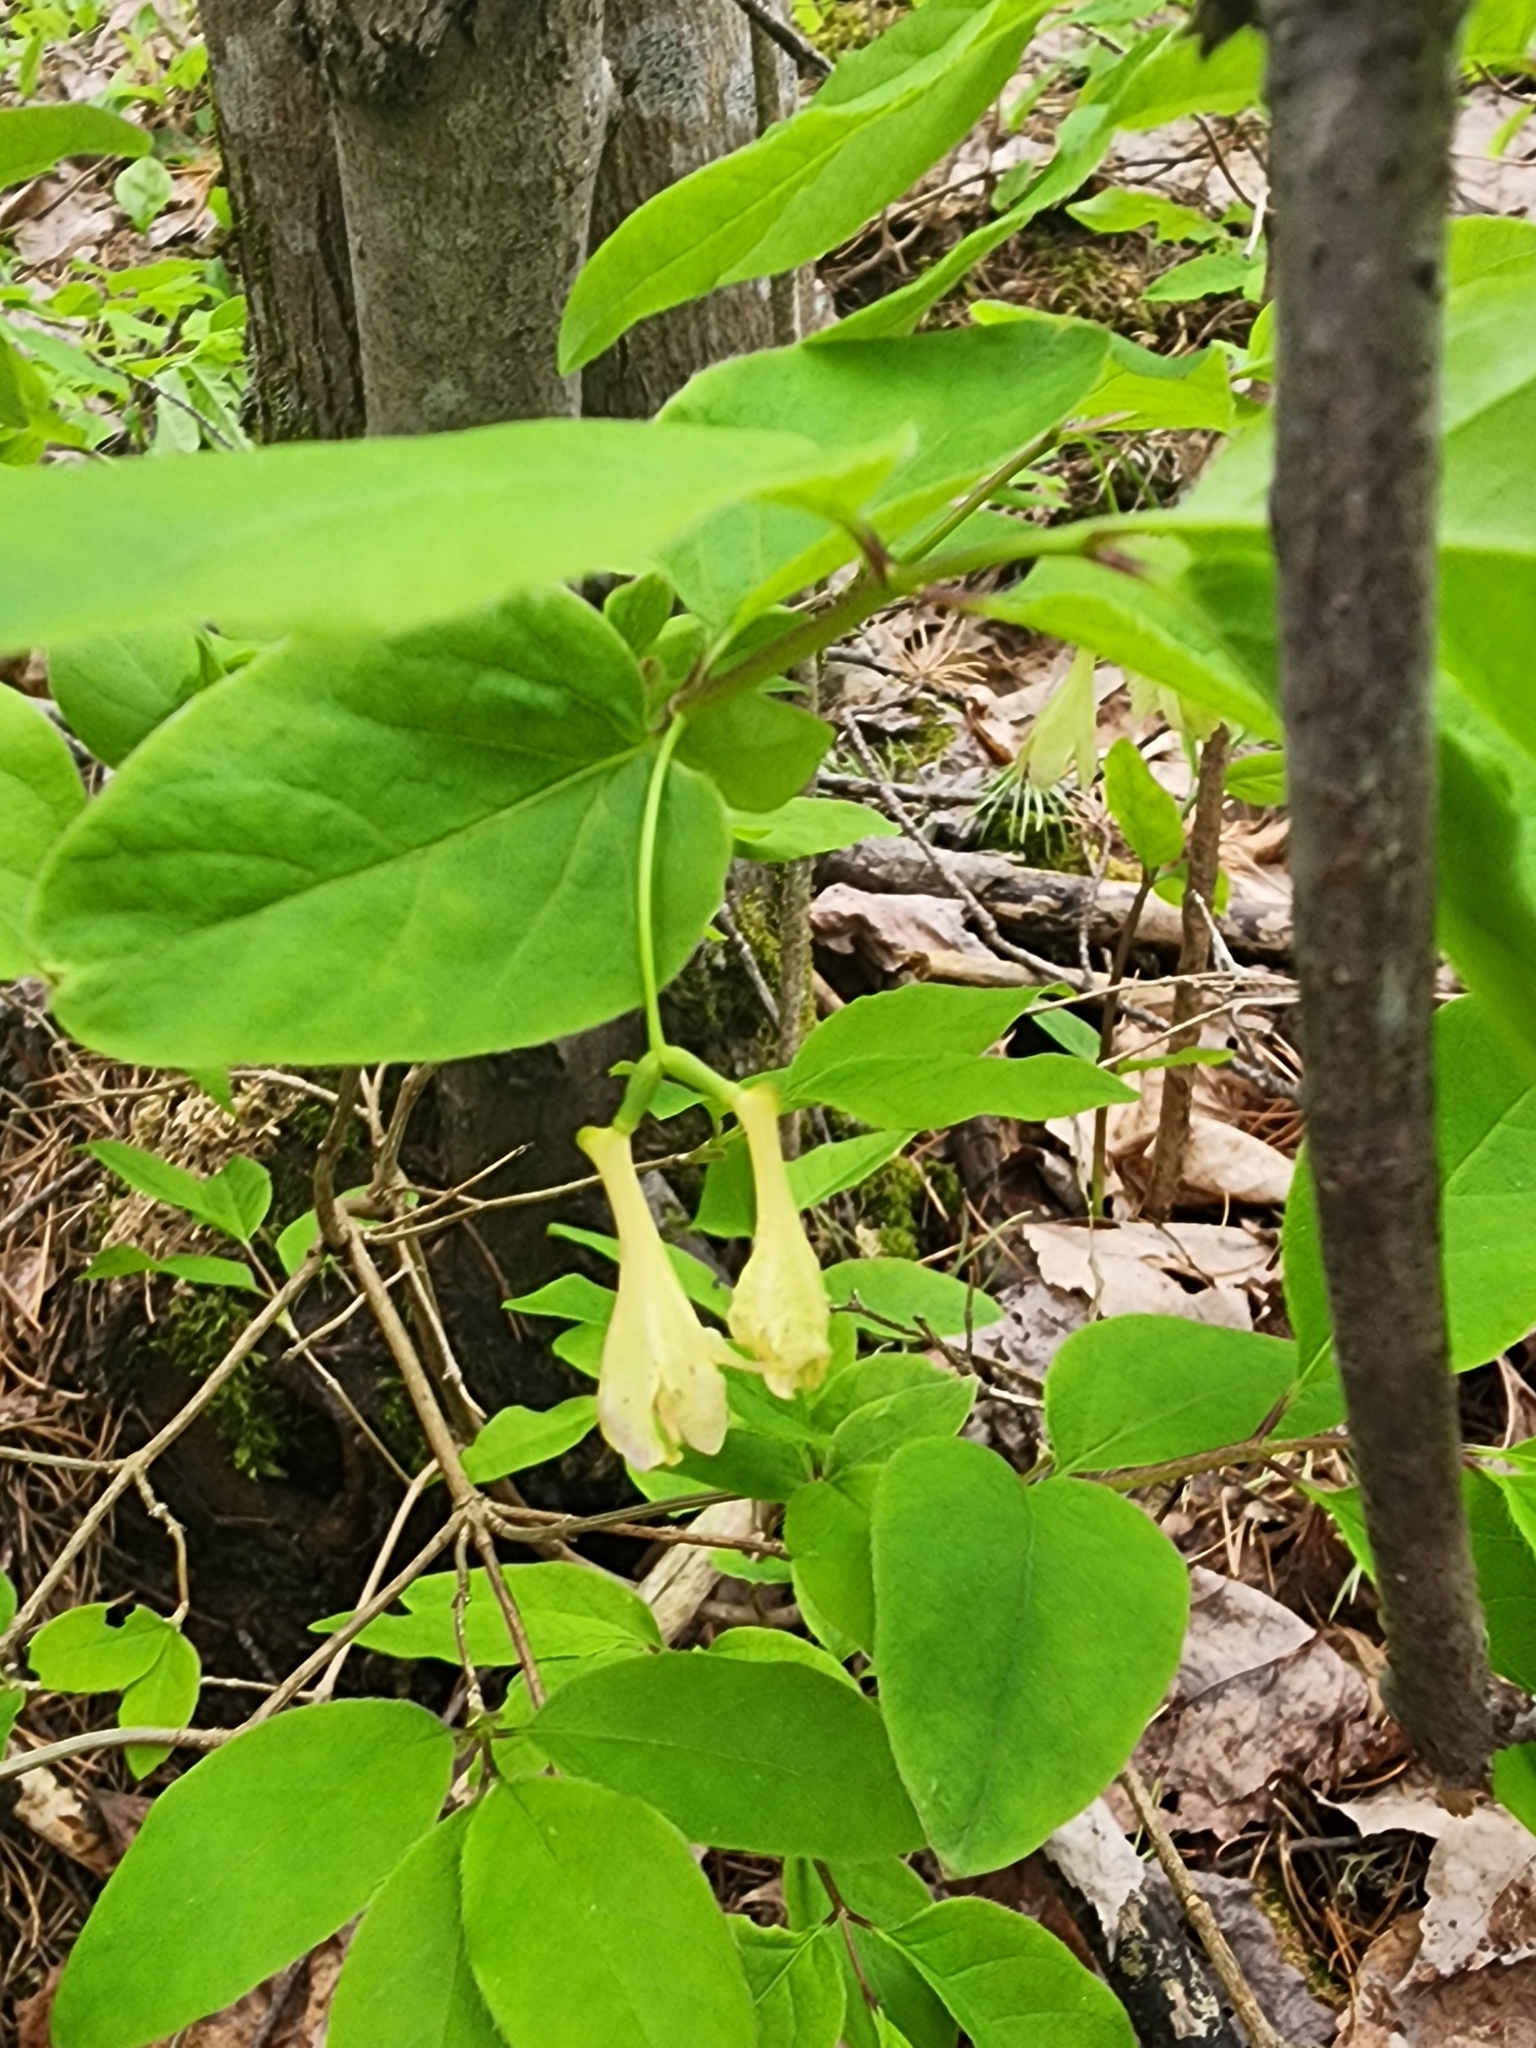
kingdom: Plantae
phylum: Tracheophyta
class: Magnoliopsida
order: Dipsacales
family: Caprifoliaceae
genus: Lonicera
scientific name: Lonicera canadensis
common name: American fly-honeysuckle
